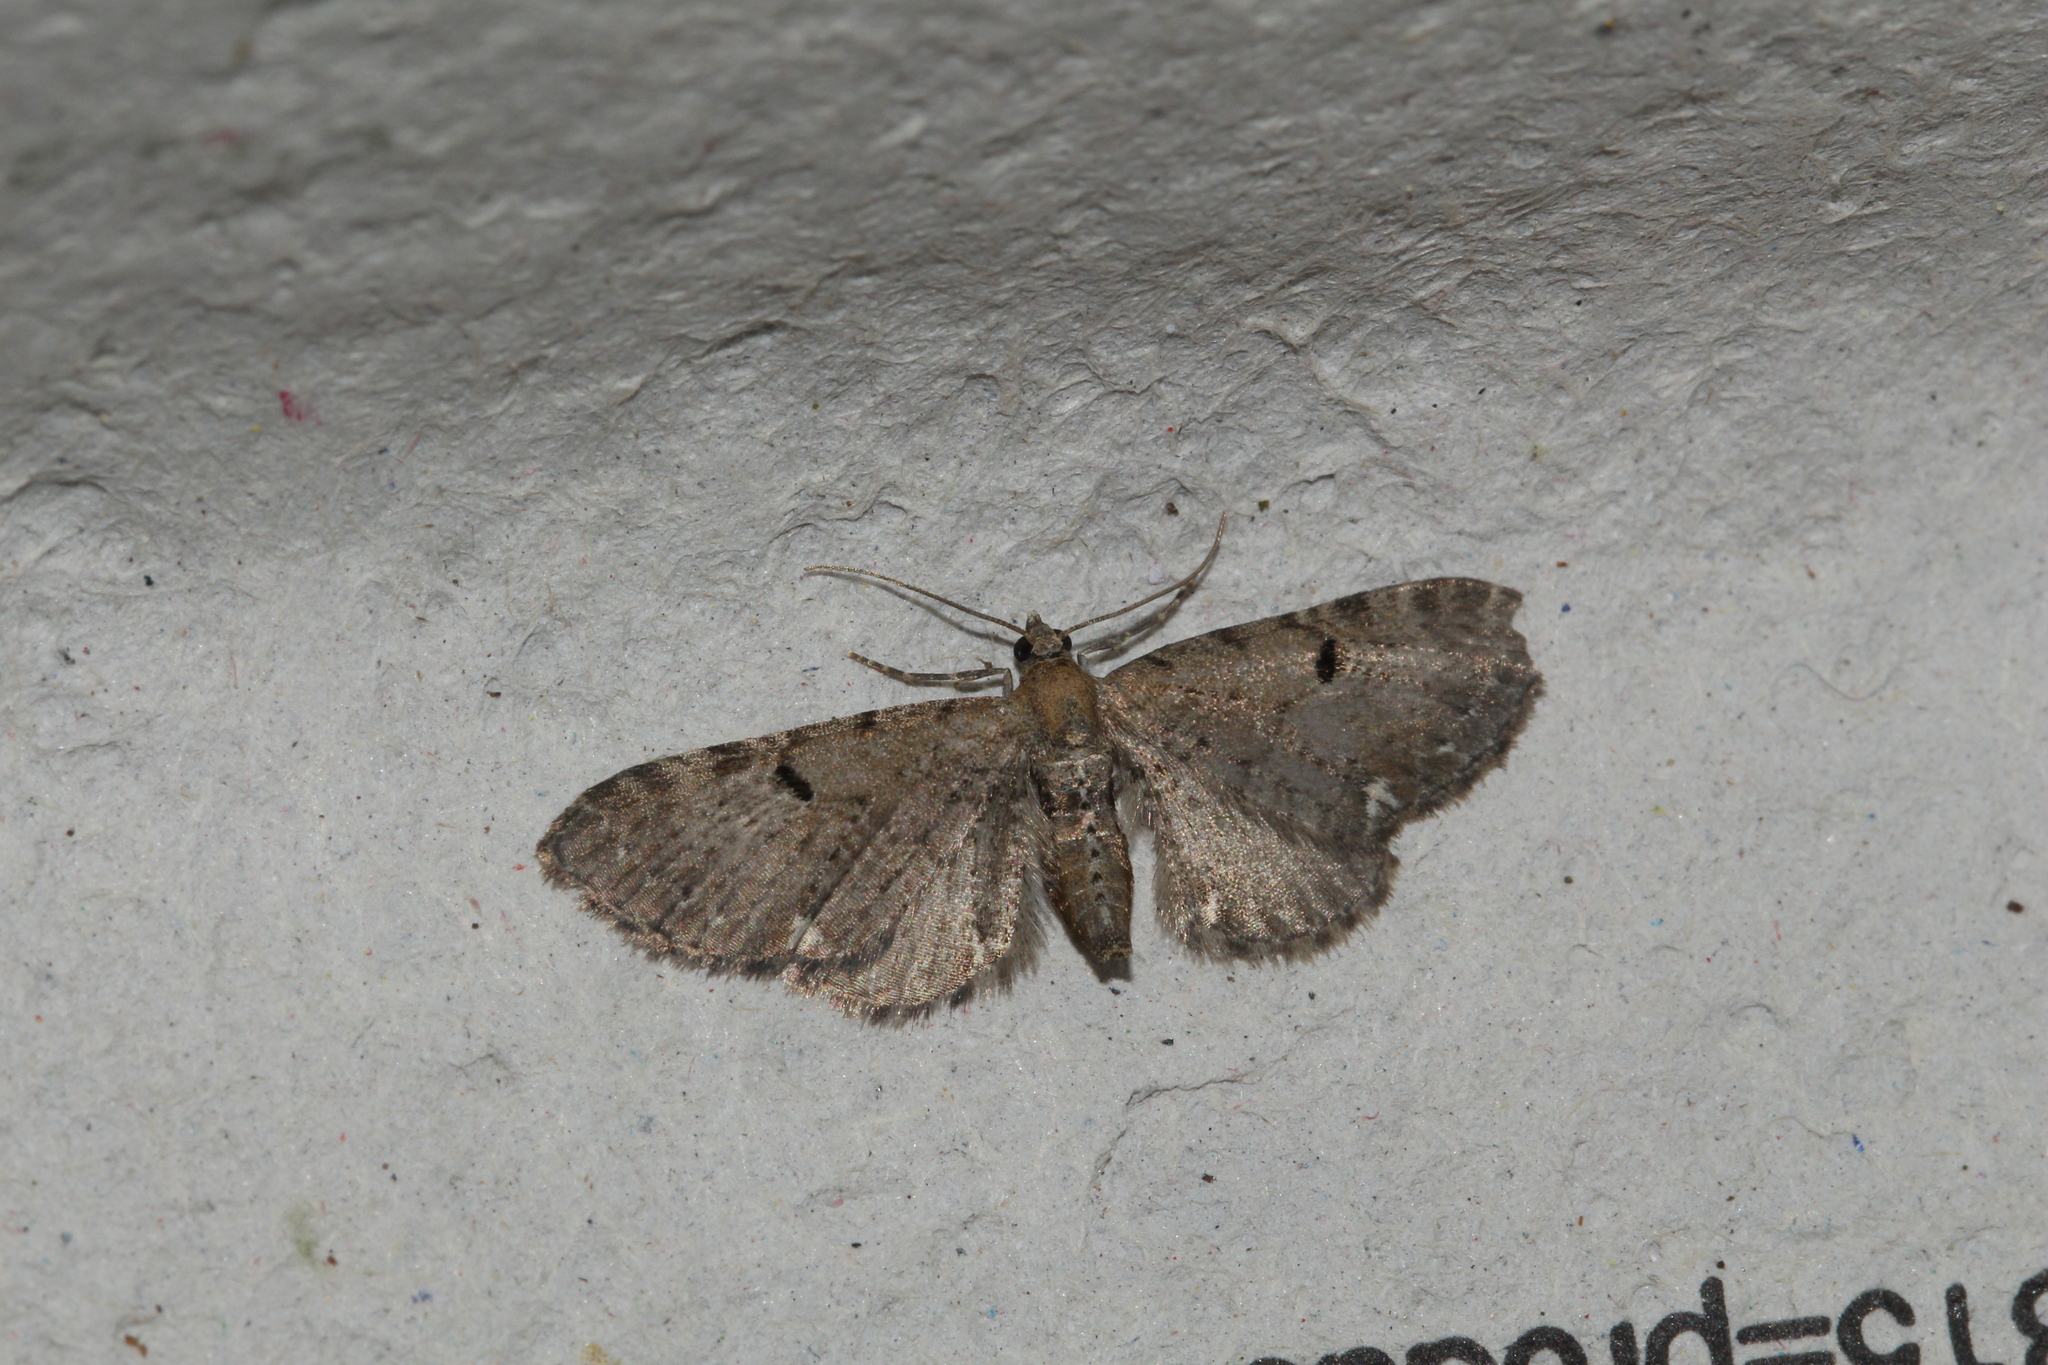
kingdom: Animalia
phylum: Arthropoda
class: Insecta
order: Lepidoptera
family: Geometridae
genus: Eupithecia
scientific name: Eupithecia assimilata
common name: Currant pug
